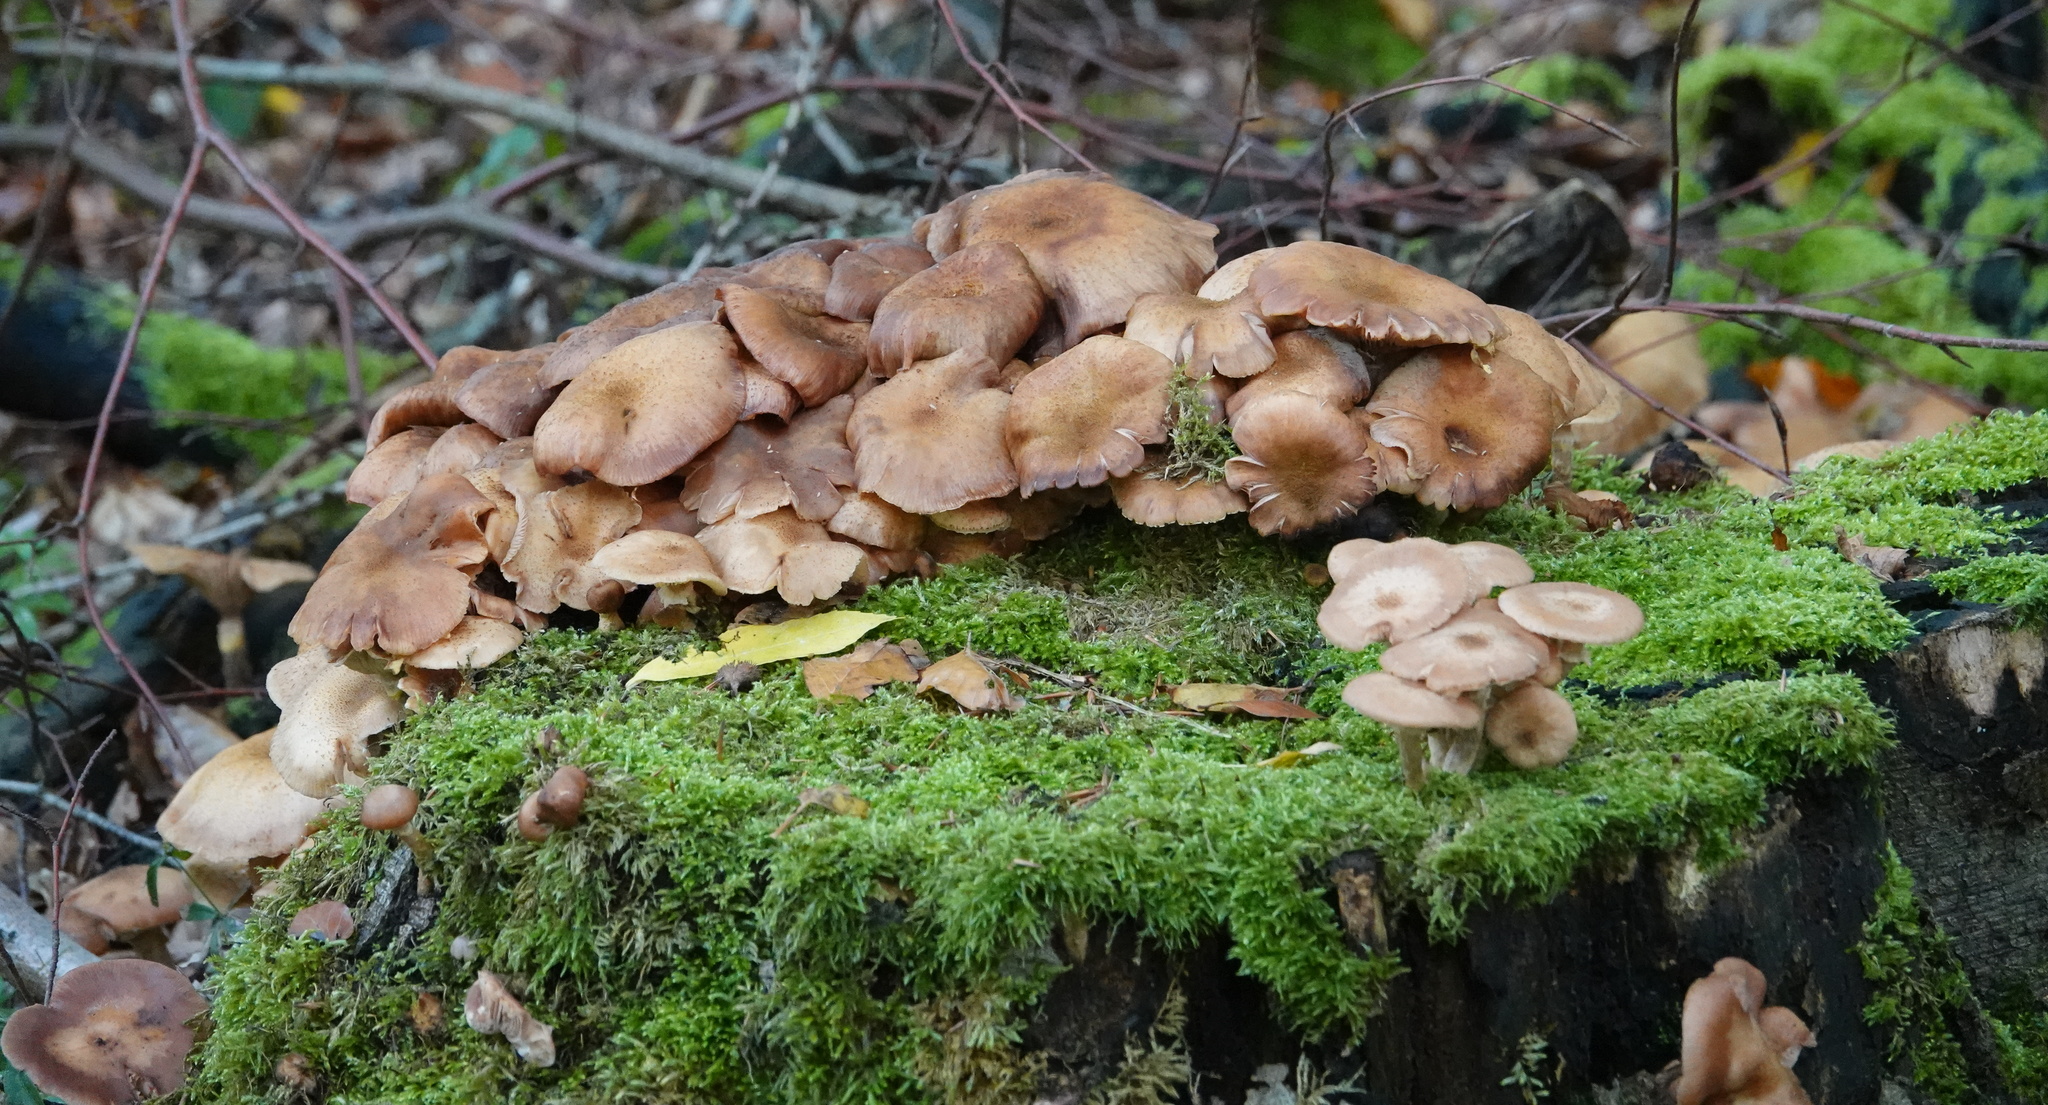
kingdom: Fungi
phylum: Basidiomycota
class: Agaricomycetes
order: Agaricales
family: Physalacriaceae
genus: Armillaria
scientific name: Armillaria mellea
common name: Honey fungus
